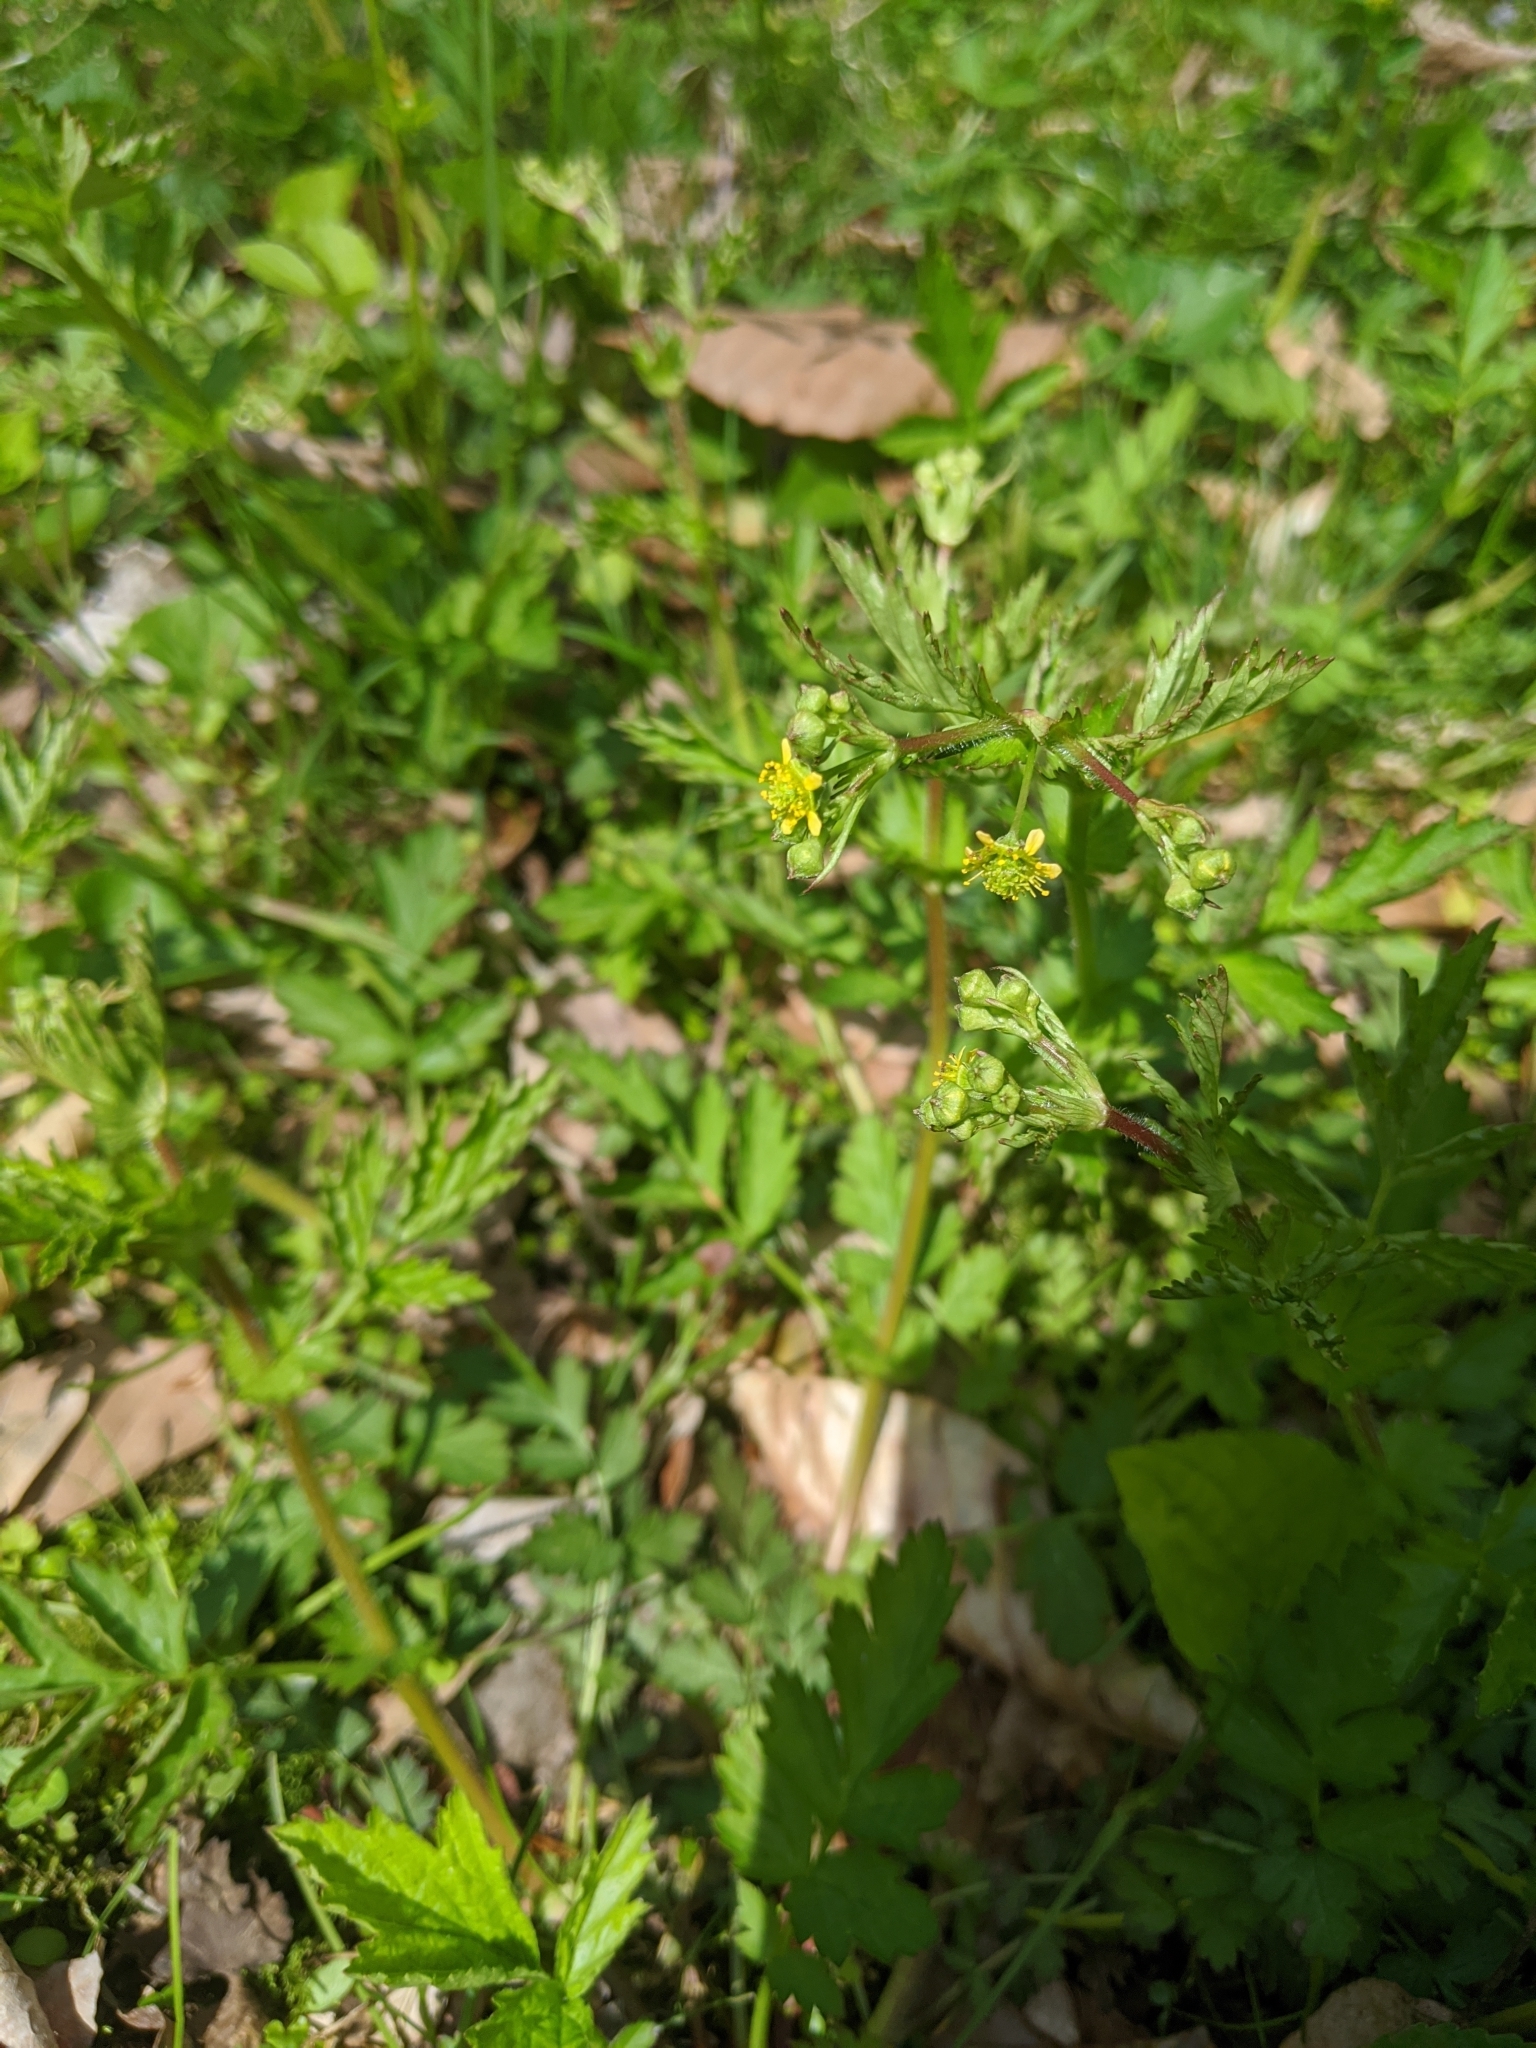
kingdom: Plantae
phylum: Tracheophyta
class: Magnoliopsida
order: Rosales
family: Rosaceae
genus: Geum
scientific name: Geum vernum
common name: Spring avens
